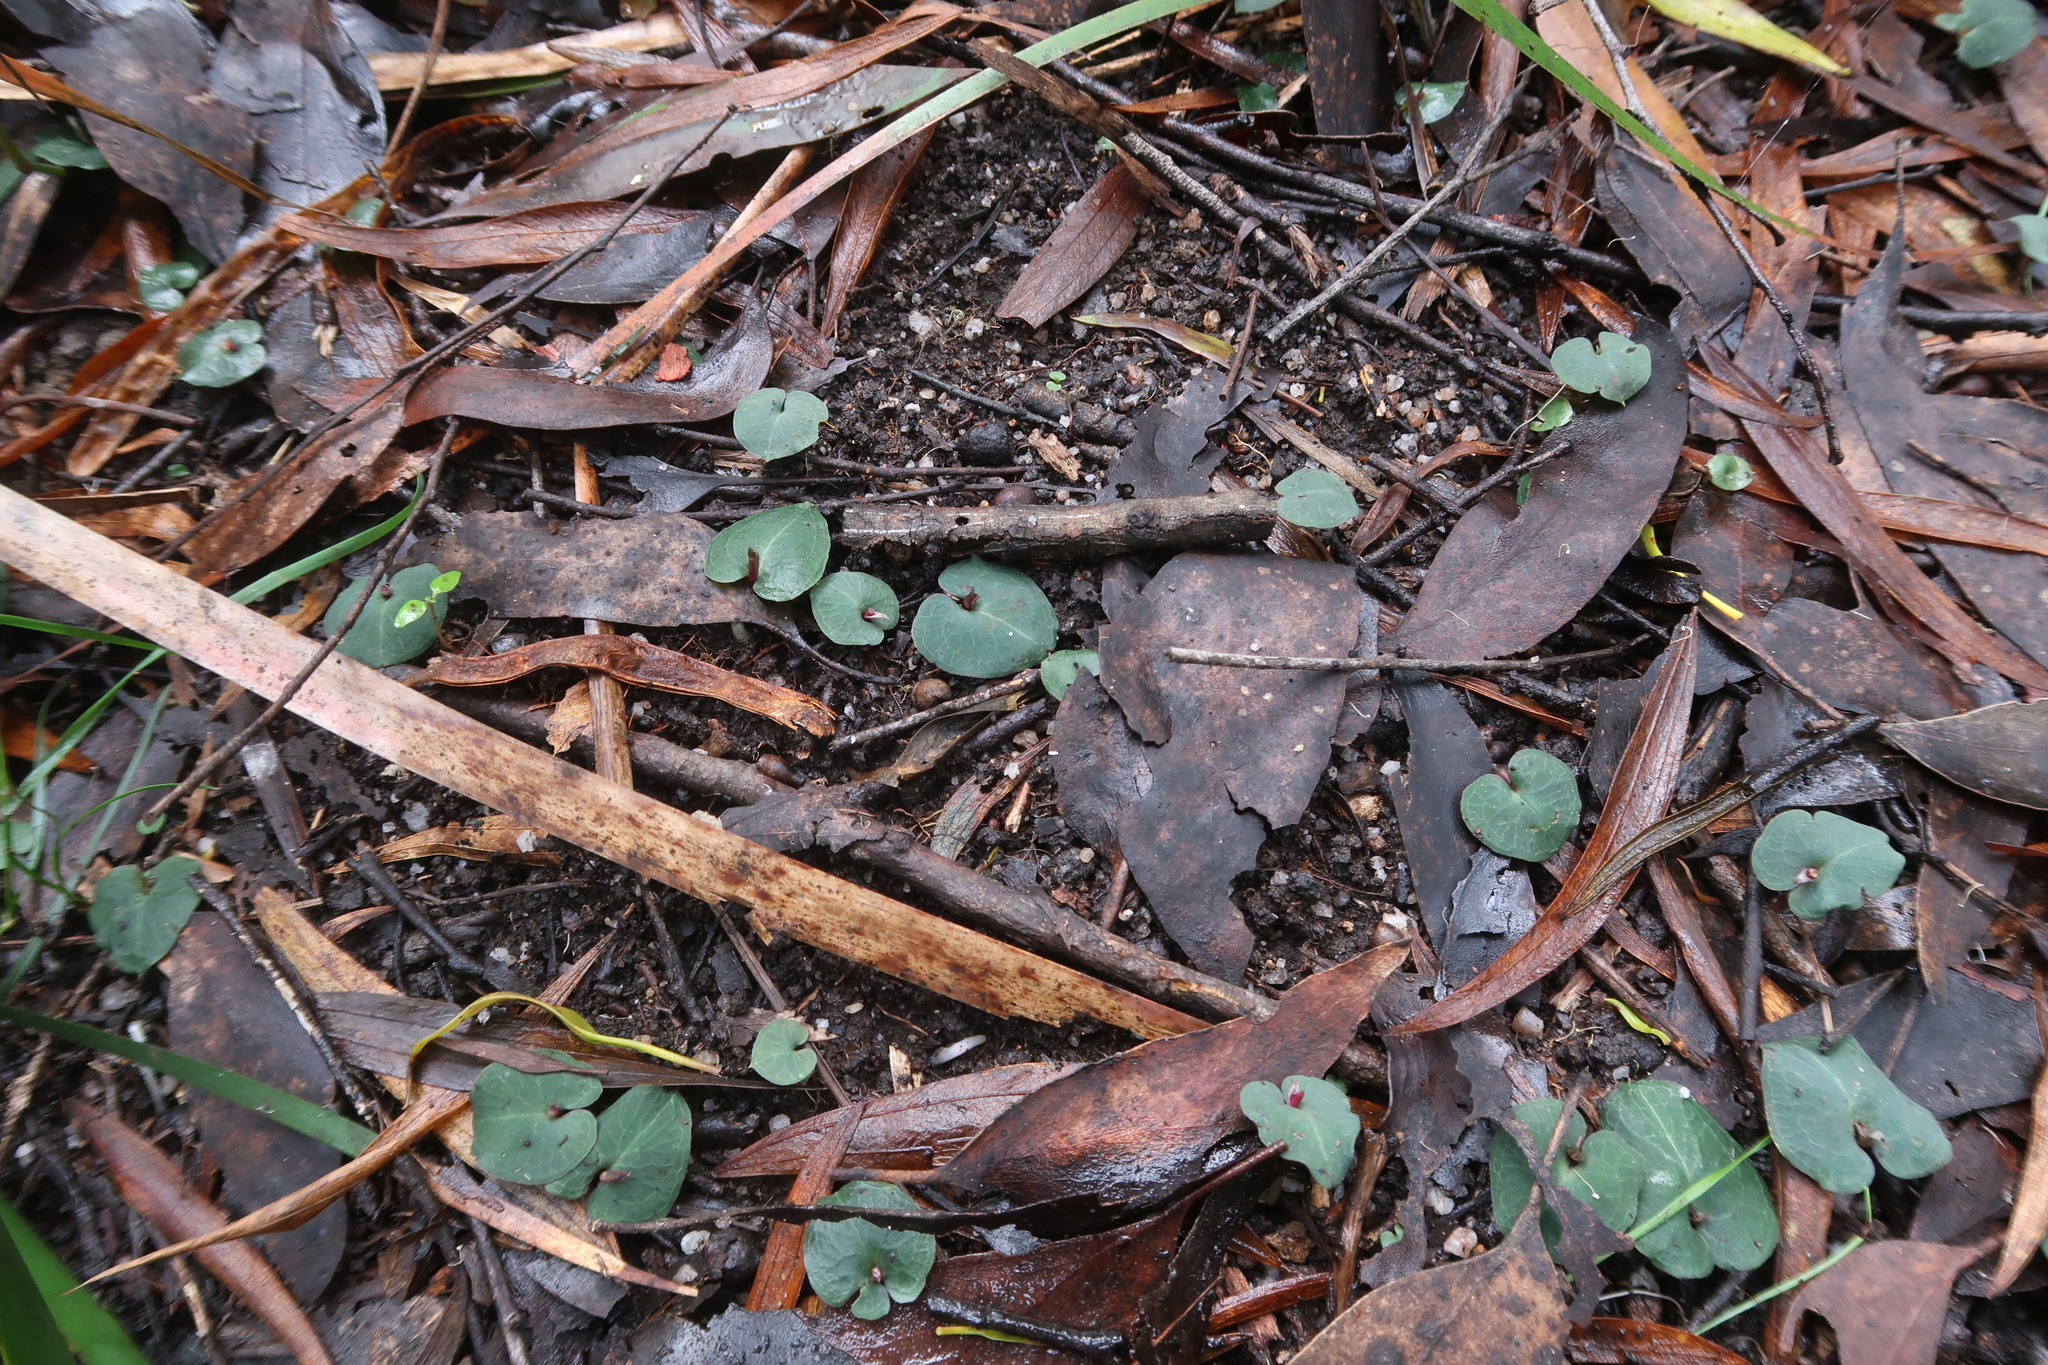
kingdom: Plantae
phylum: Tracheophyta
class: Liliopsida
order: Asparagales
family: Orchidaceae
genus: Corybas
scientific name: Corybas aconitiflorus
